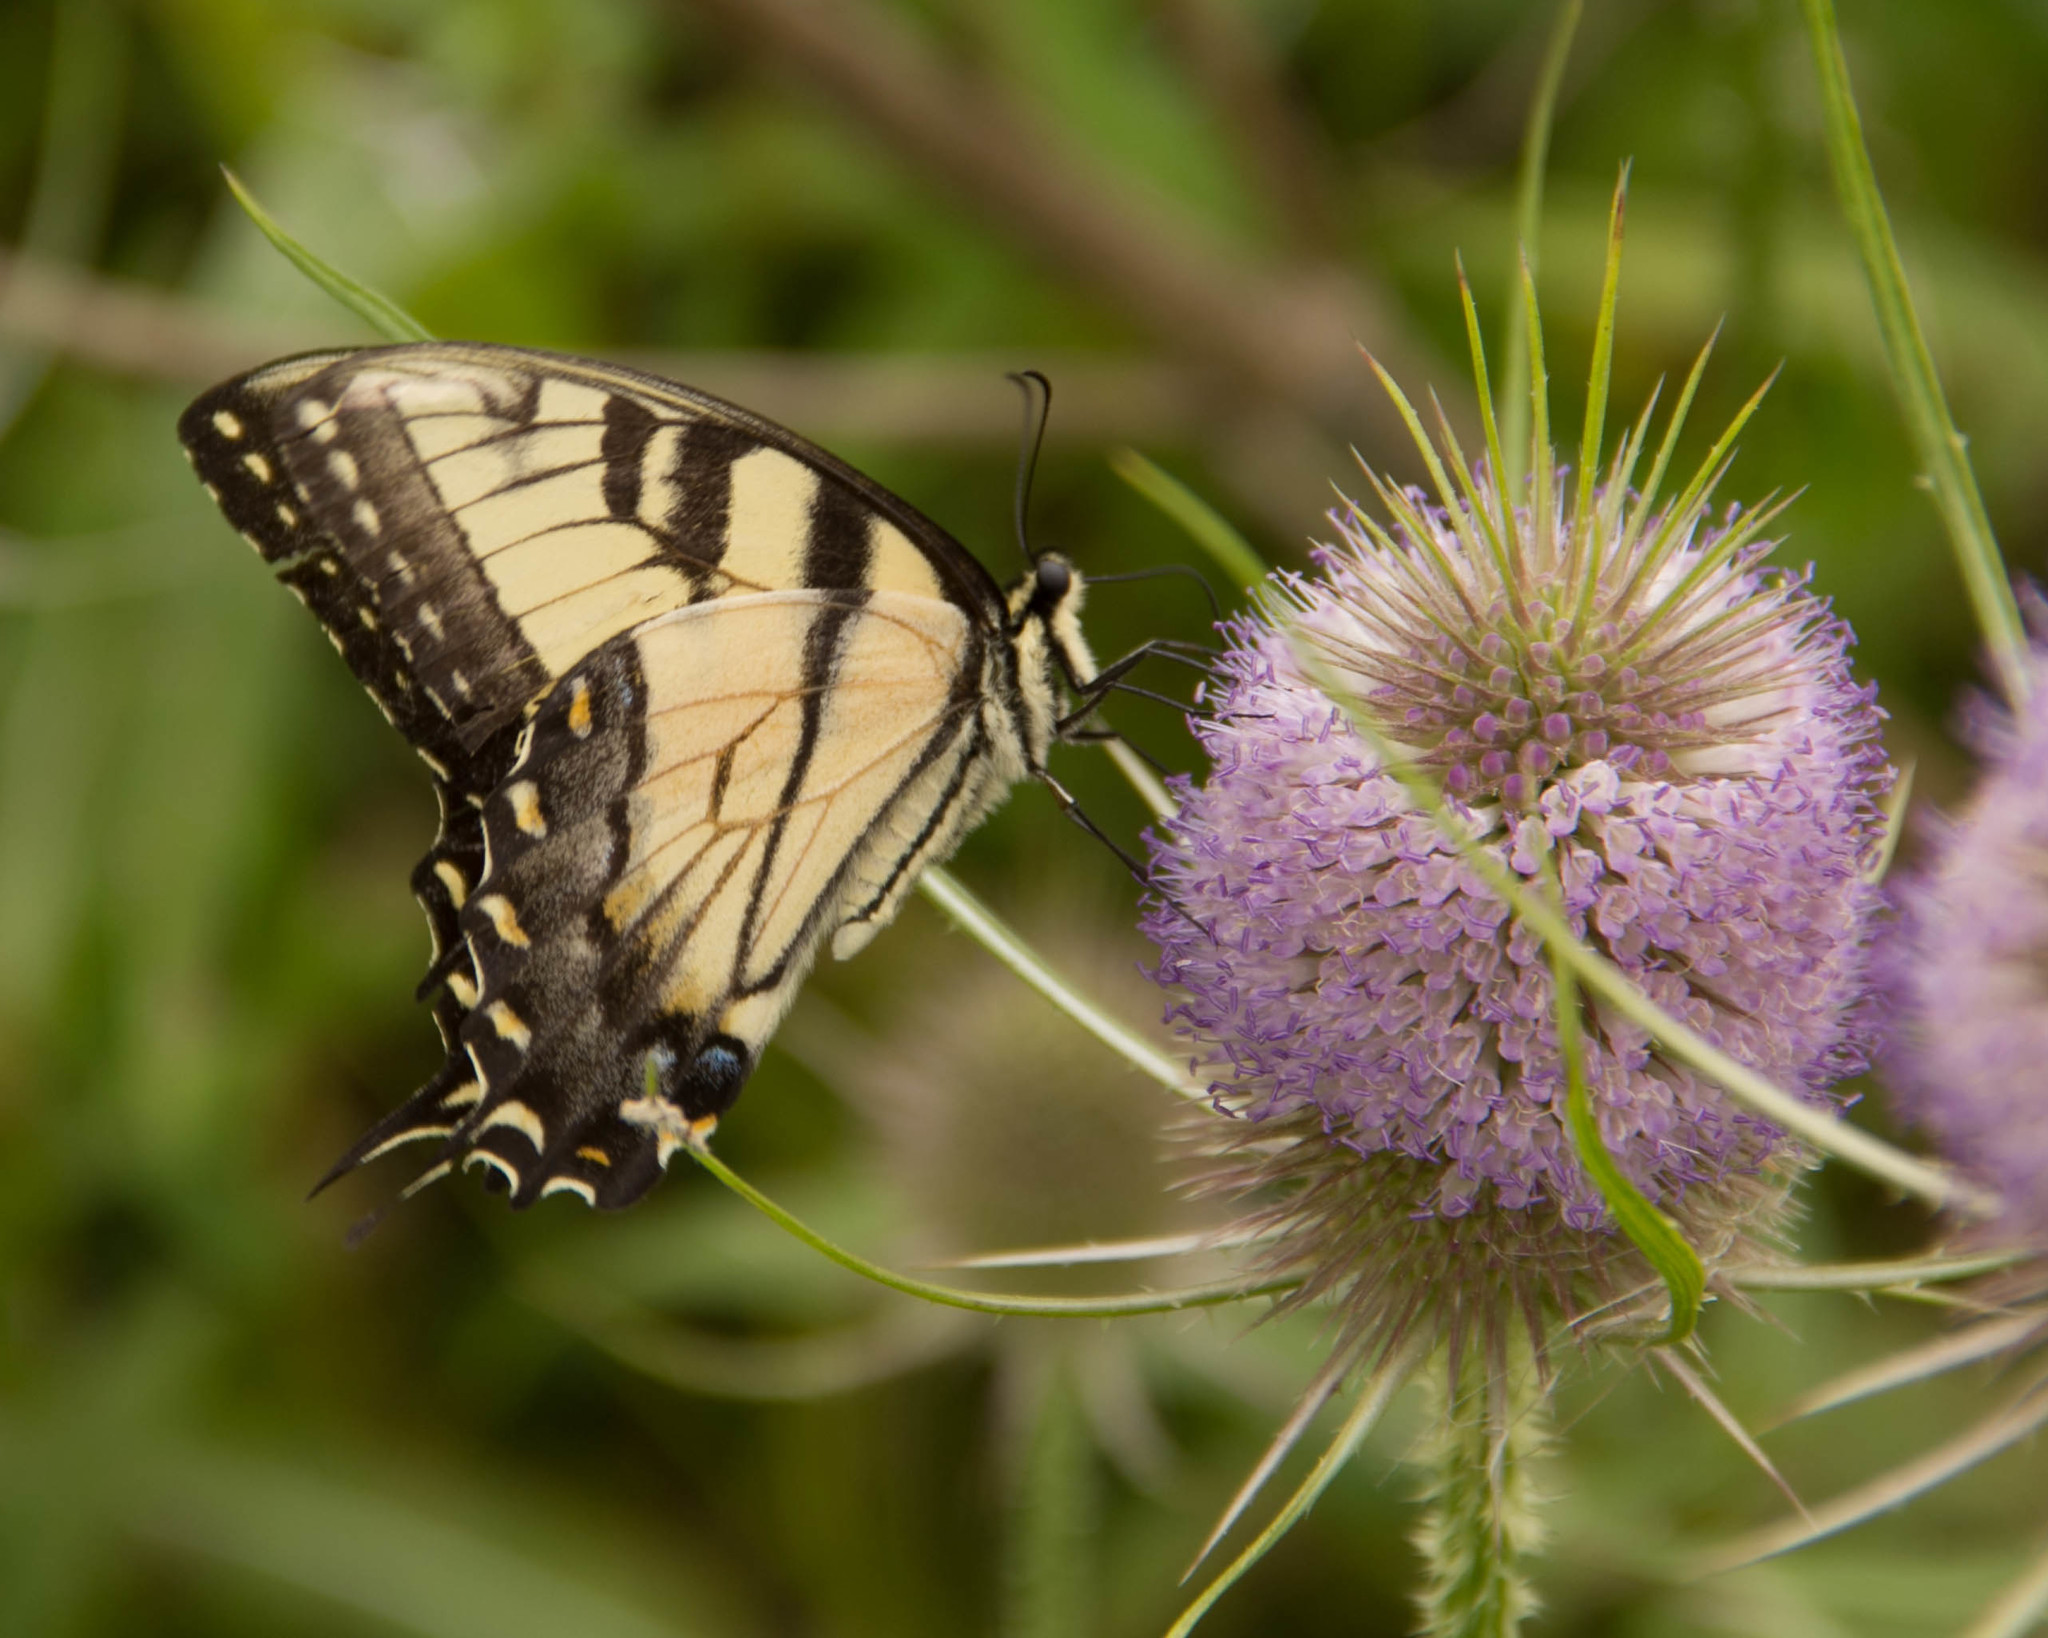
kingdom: Animalia
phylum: Arthropoda
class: Insecta
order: Lepidoptera
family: Papilionidae
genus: Papilio
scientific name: Papilio glaucus
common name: Tiger swallowtail
